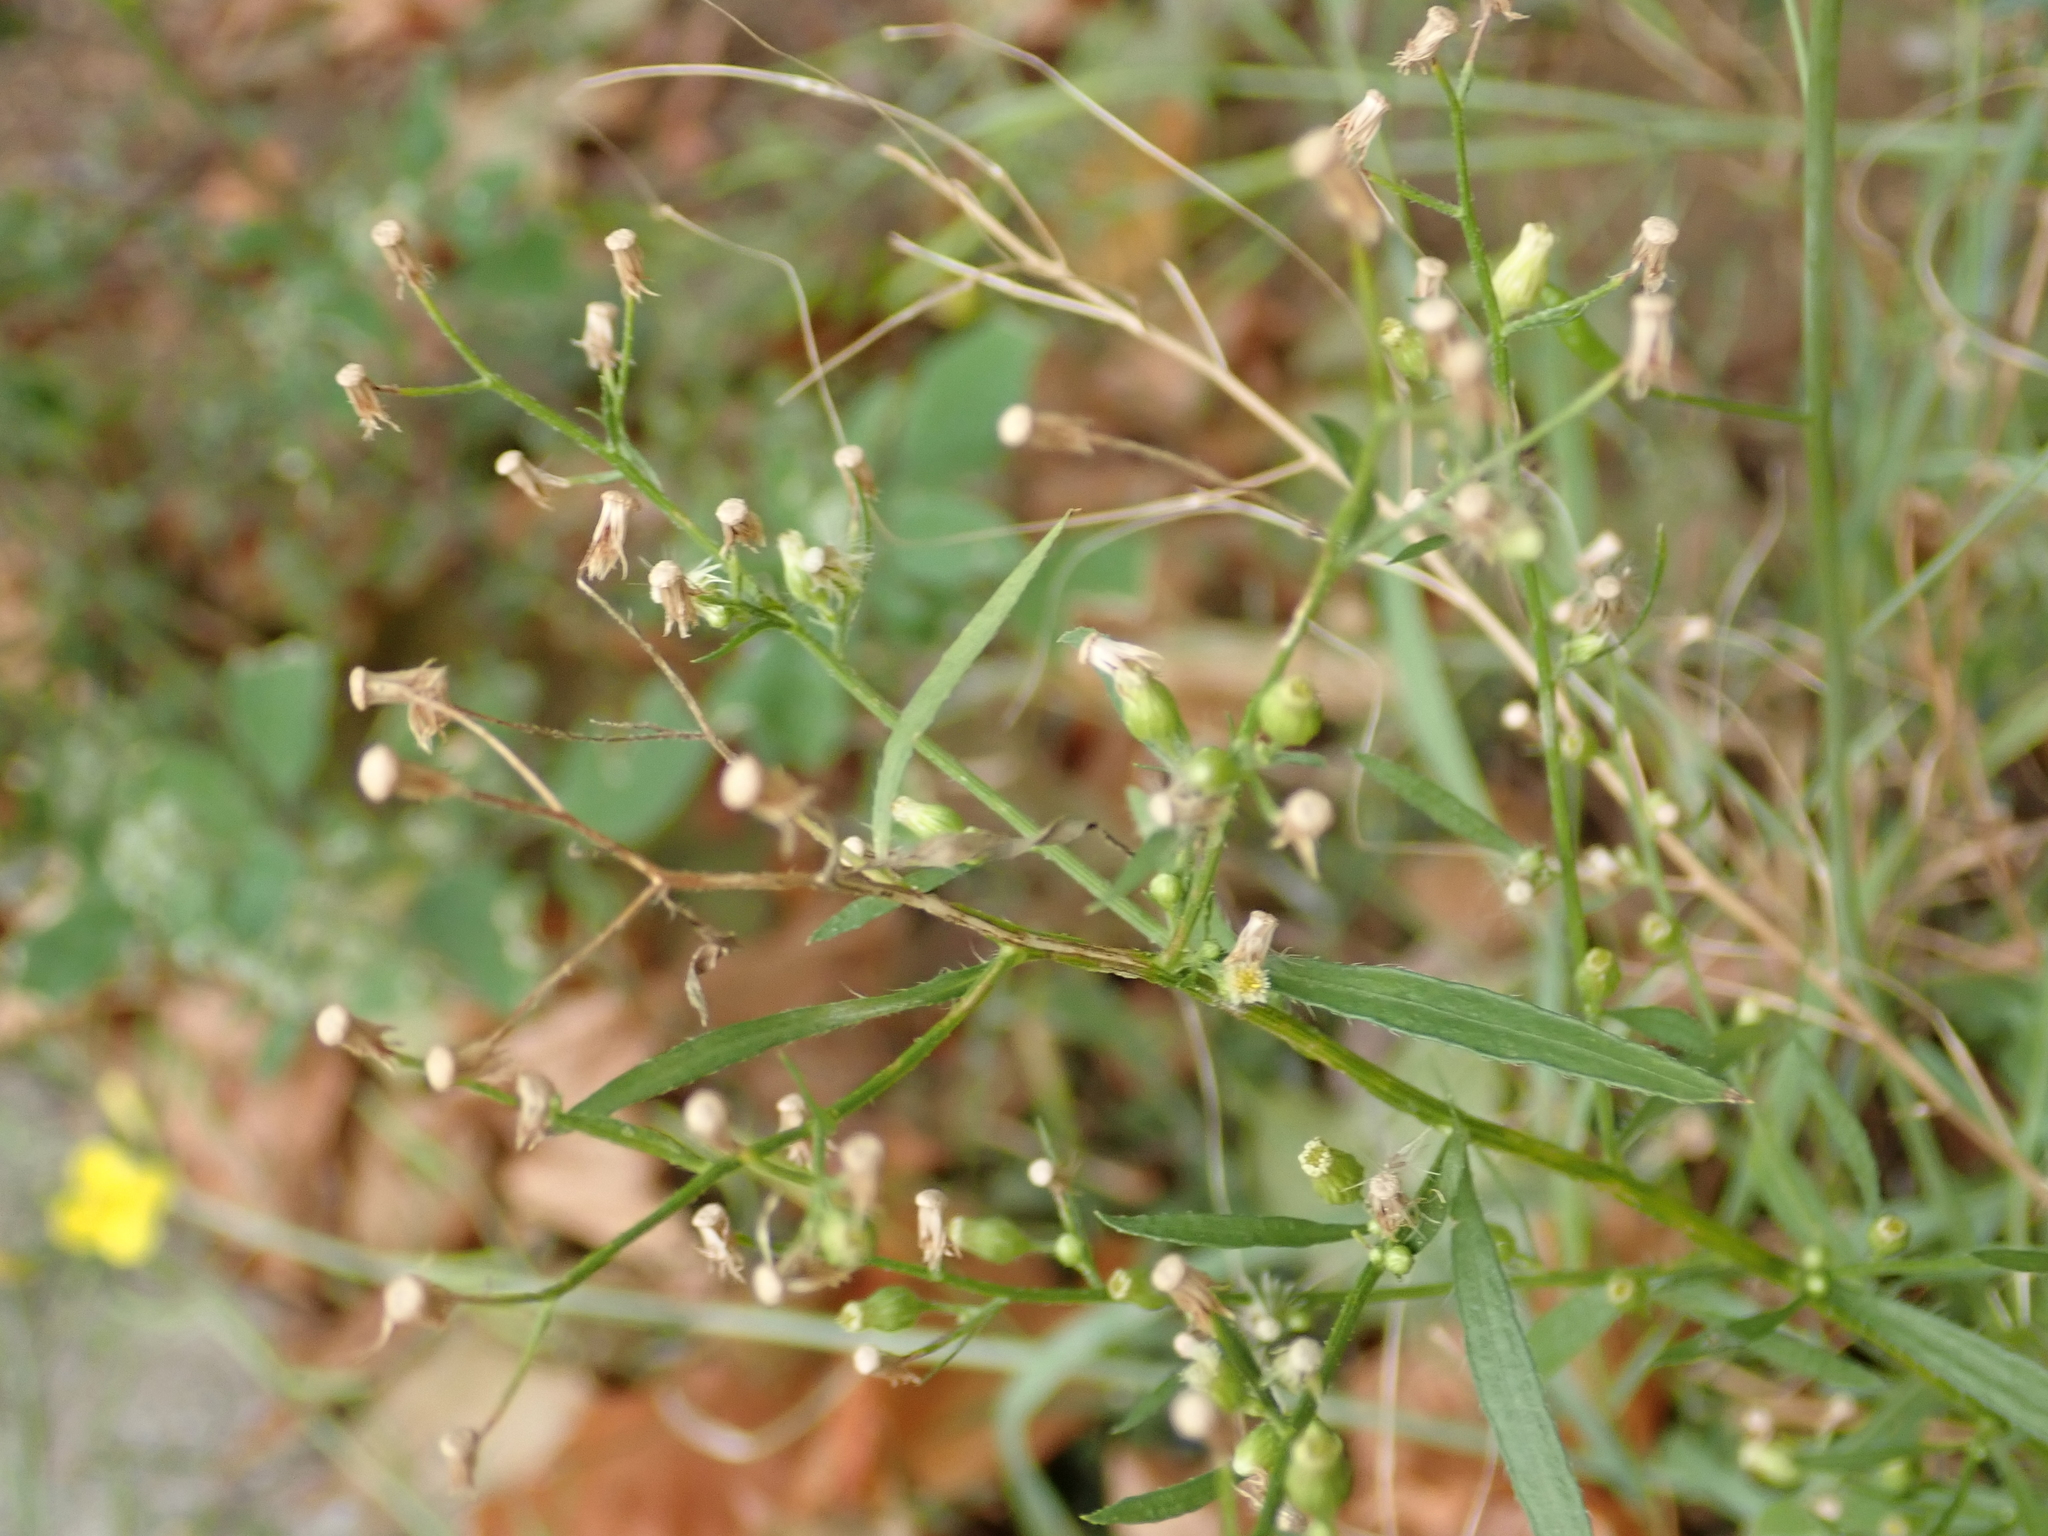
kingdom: Plantae
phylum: Tracheophyta
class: Magnoliopsida
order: Asterales
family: Asteraceae
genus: Erigeron
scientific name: Erigeron canadensis
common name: Canadian fleabane
